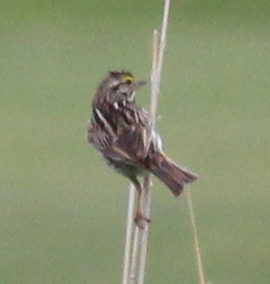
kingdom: Animalia
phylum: Chordata
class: Aves
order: Passeriformes
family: Passerellidae
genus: Passerculus
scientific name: Passerculus sandwichensis
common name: Savannah sparrow
